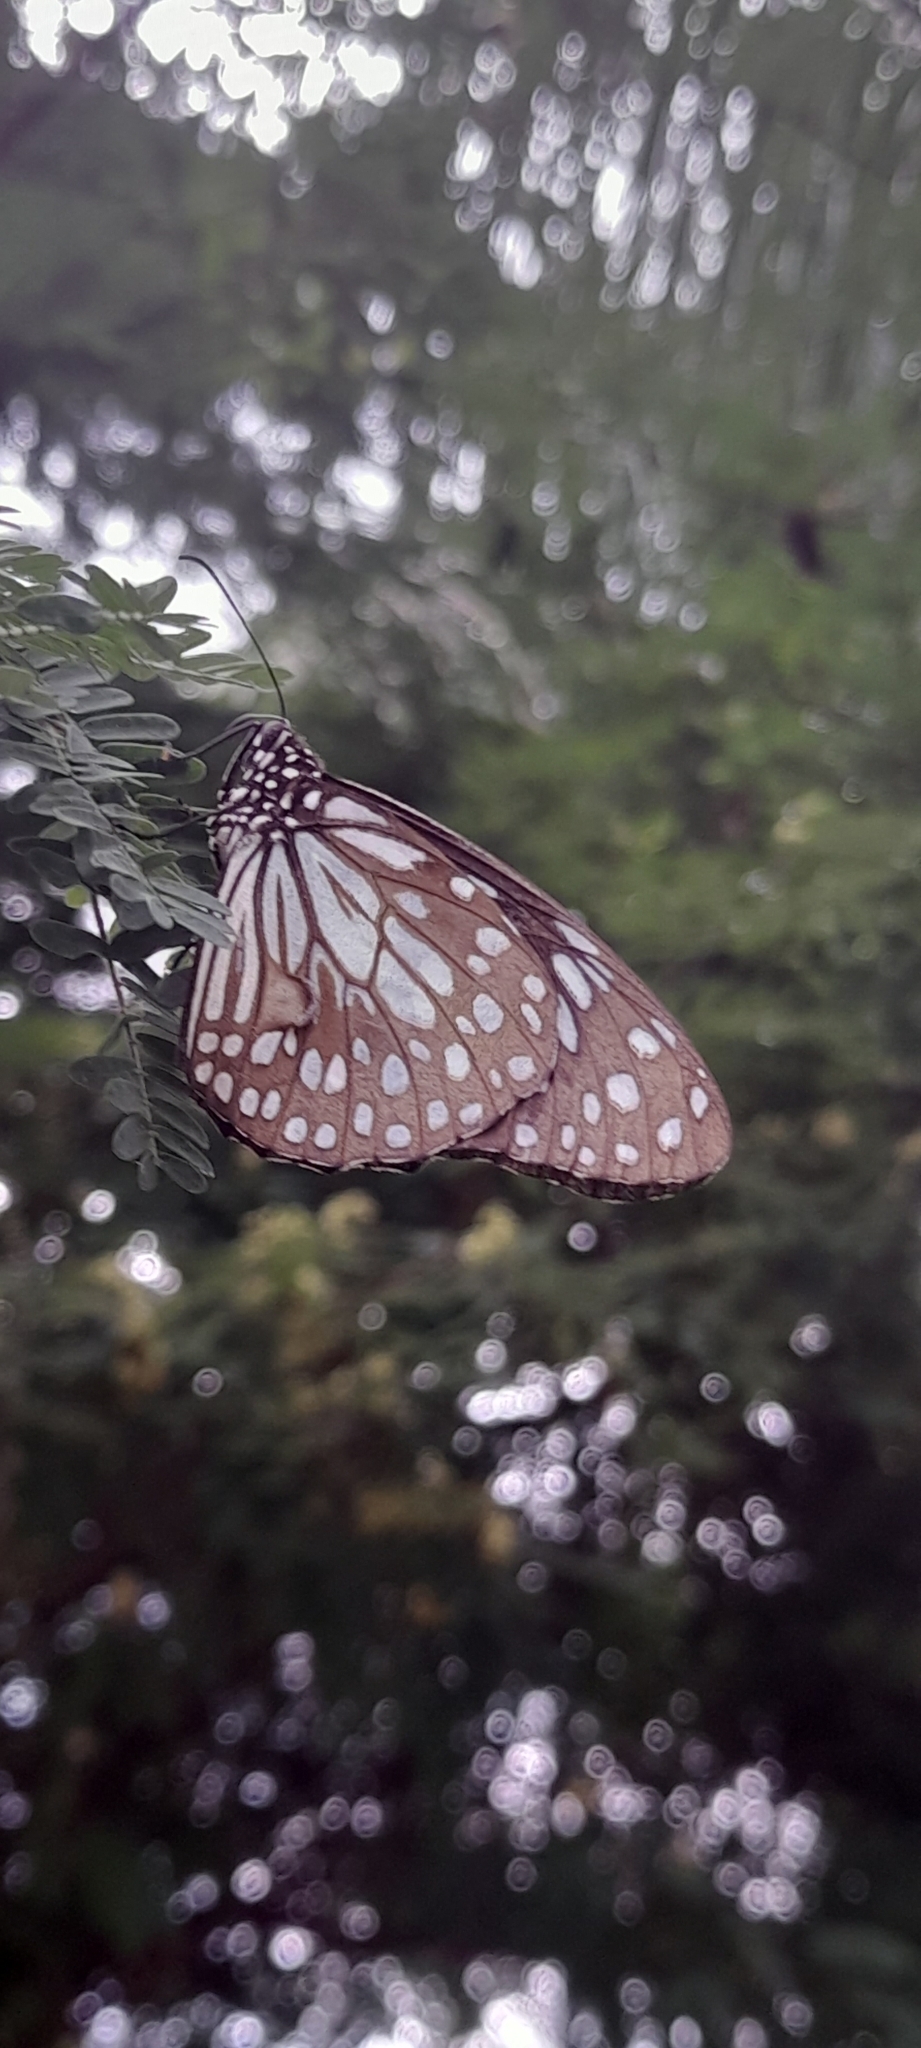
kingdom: Animalia
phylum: Arthropoda
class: Insecta
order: Lepidoptera
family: Nymphalidae
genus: Tirumala
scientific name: Tirumala limniace
